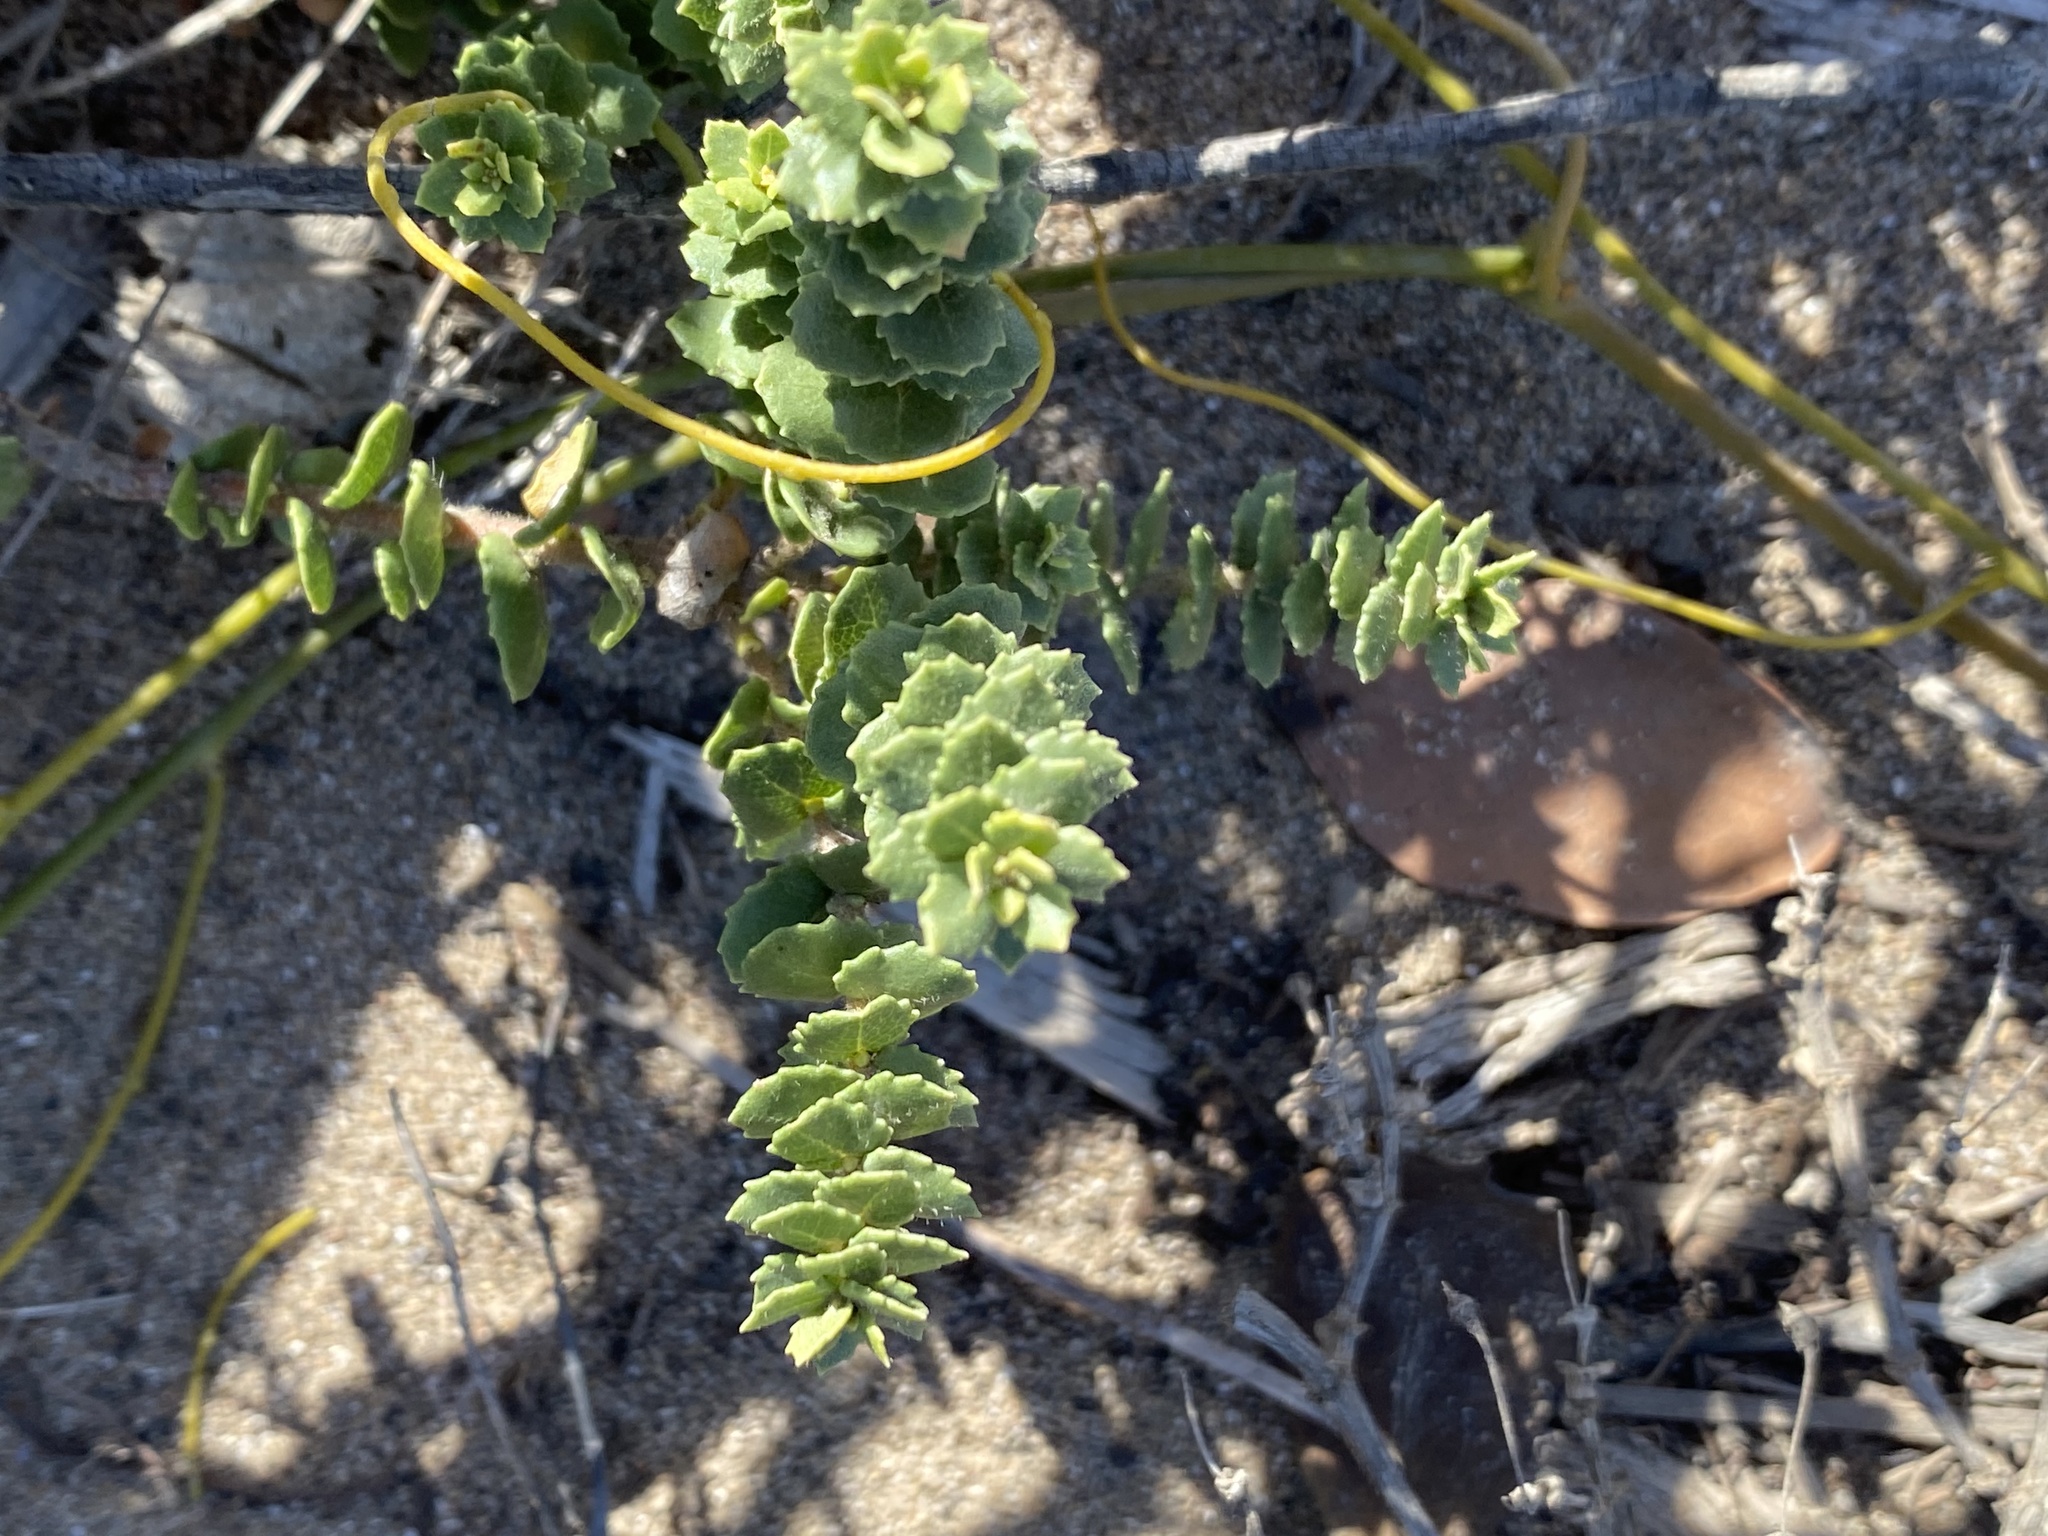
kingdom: Plantae
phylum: Tracheophyta
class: Magnoliopsida
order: Fagales
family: Myricaceae
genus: Morella
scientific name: Morella cordifolia
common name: Waxberry
